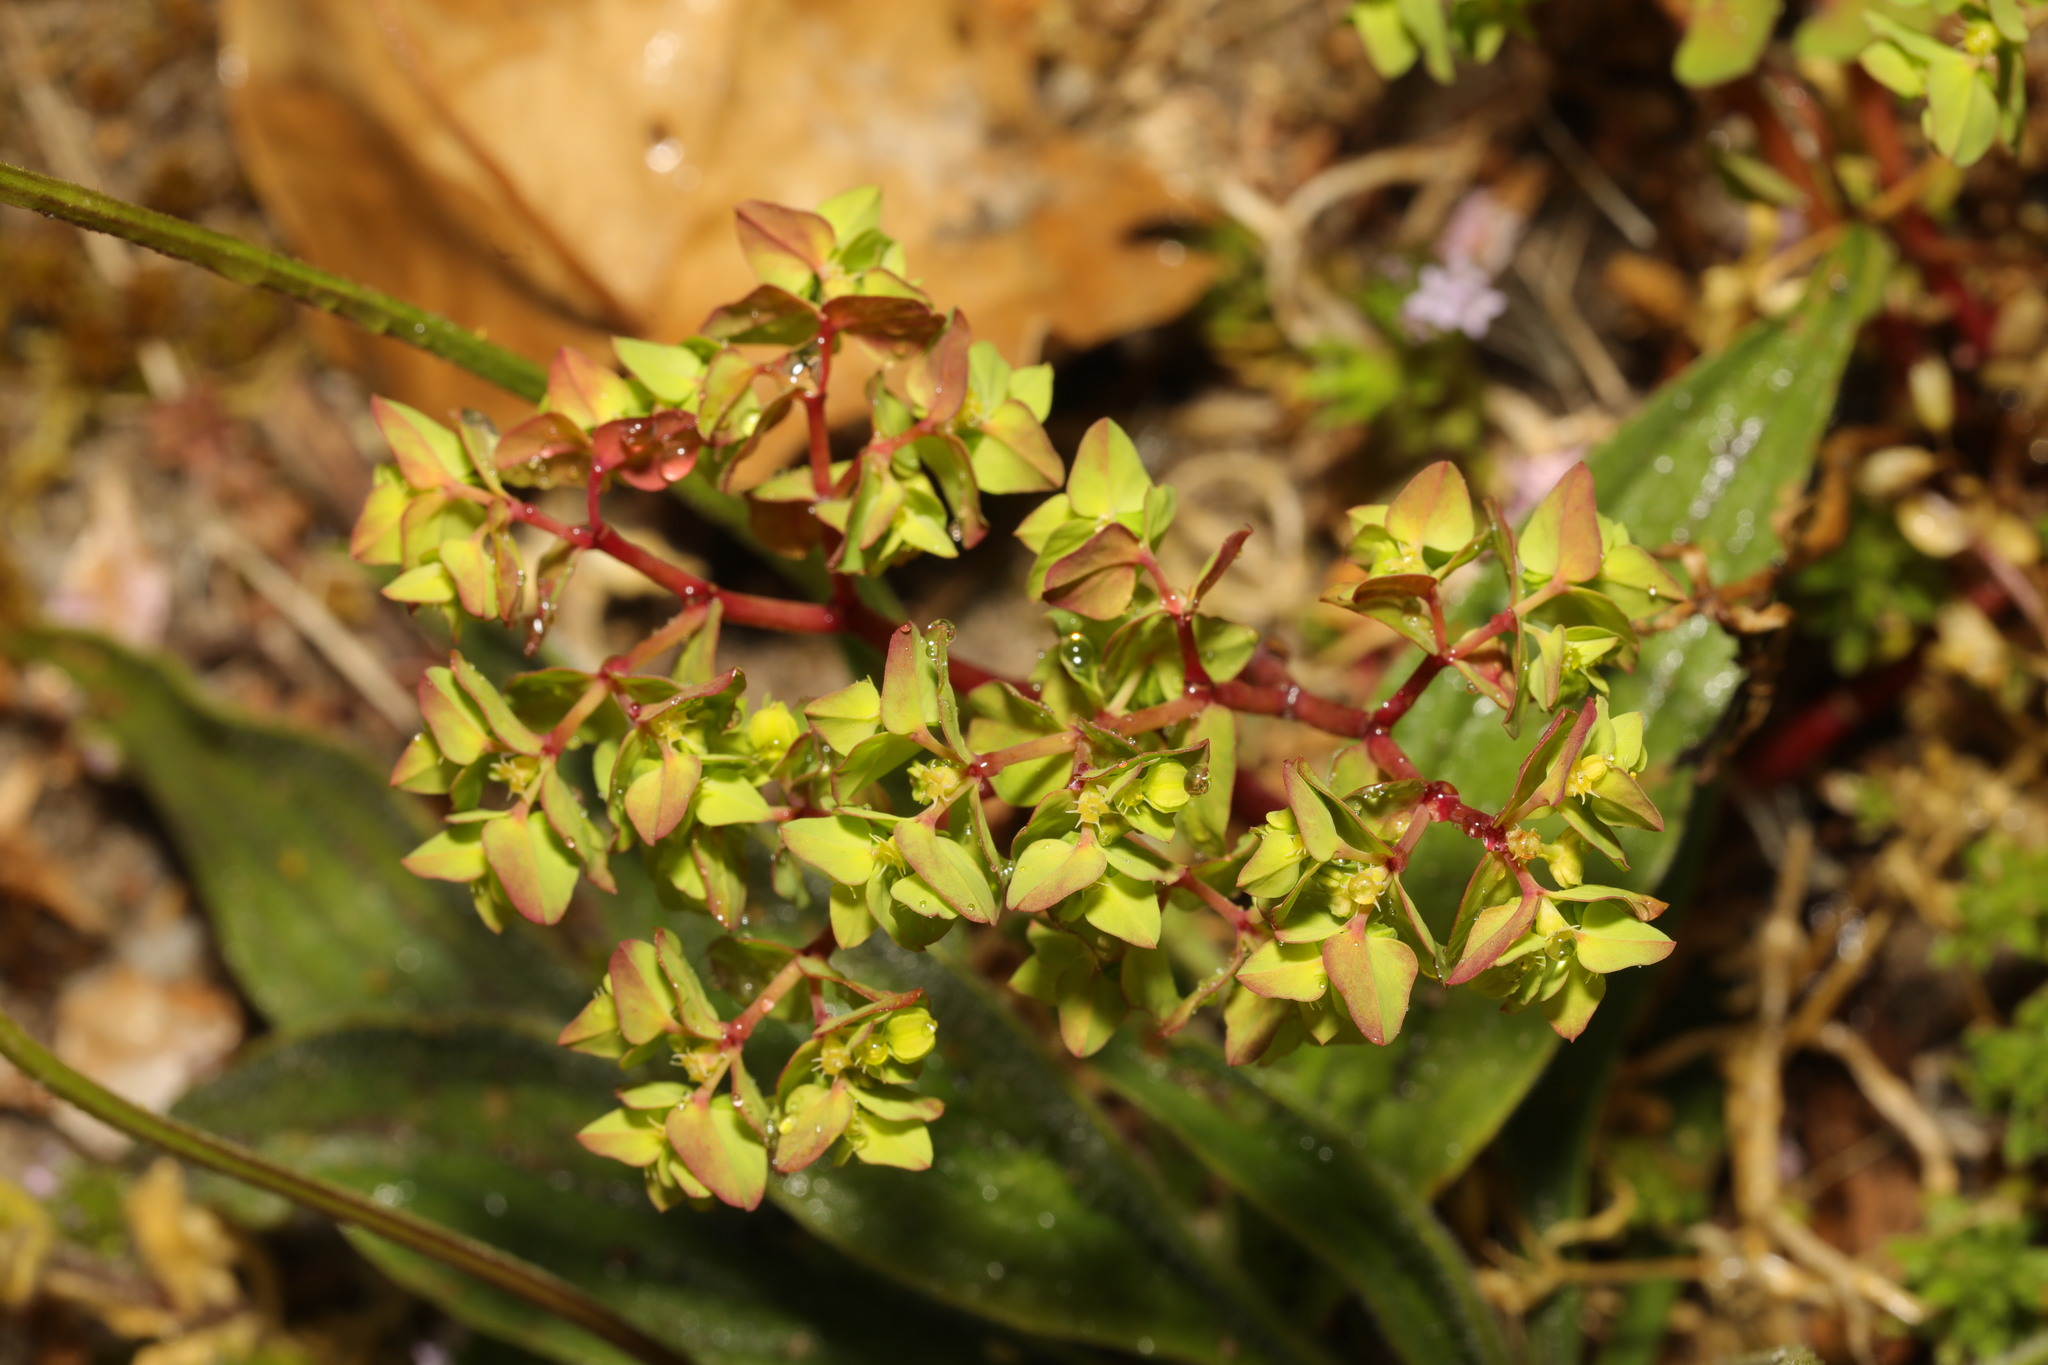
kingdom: Plantae
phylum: Tracheophyta
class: Magnoliopsida
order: Malpighiales
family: Euphorbiaceae
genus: Euphorbia
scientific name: Euphorbia peplus
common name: Petty spurge
